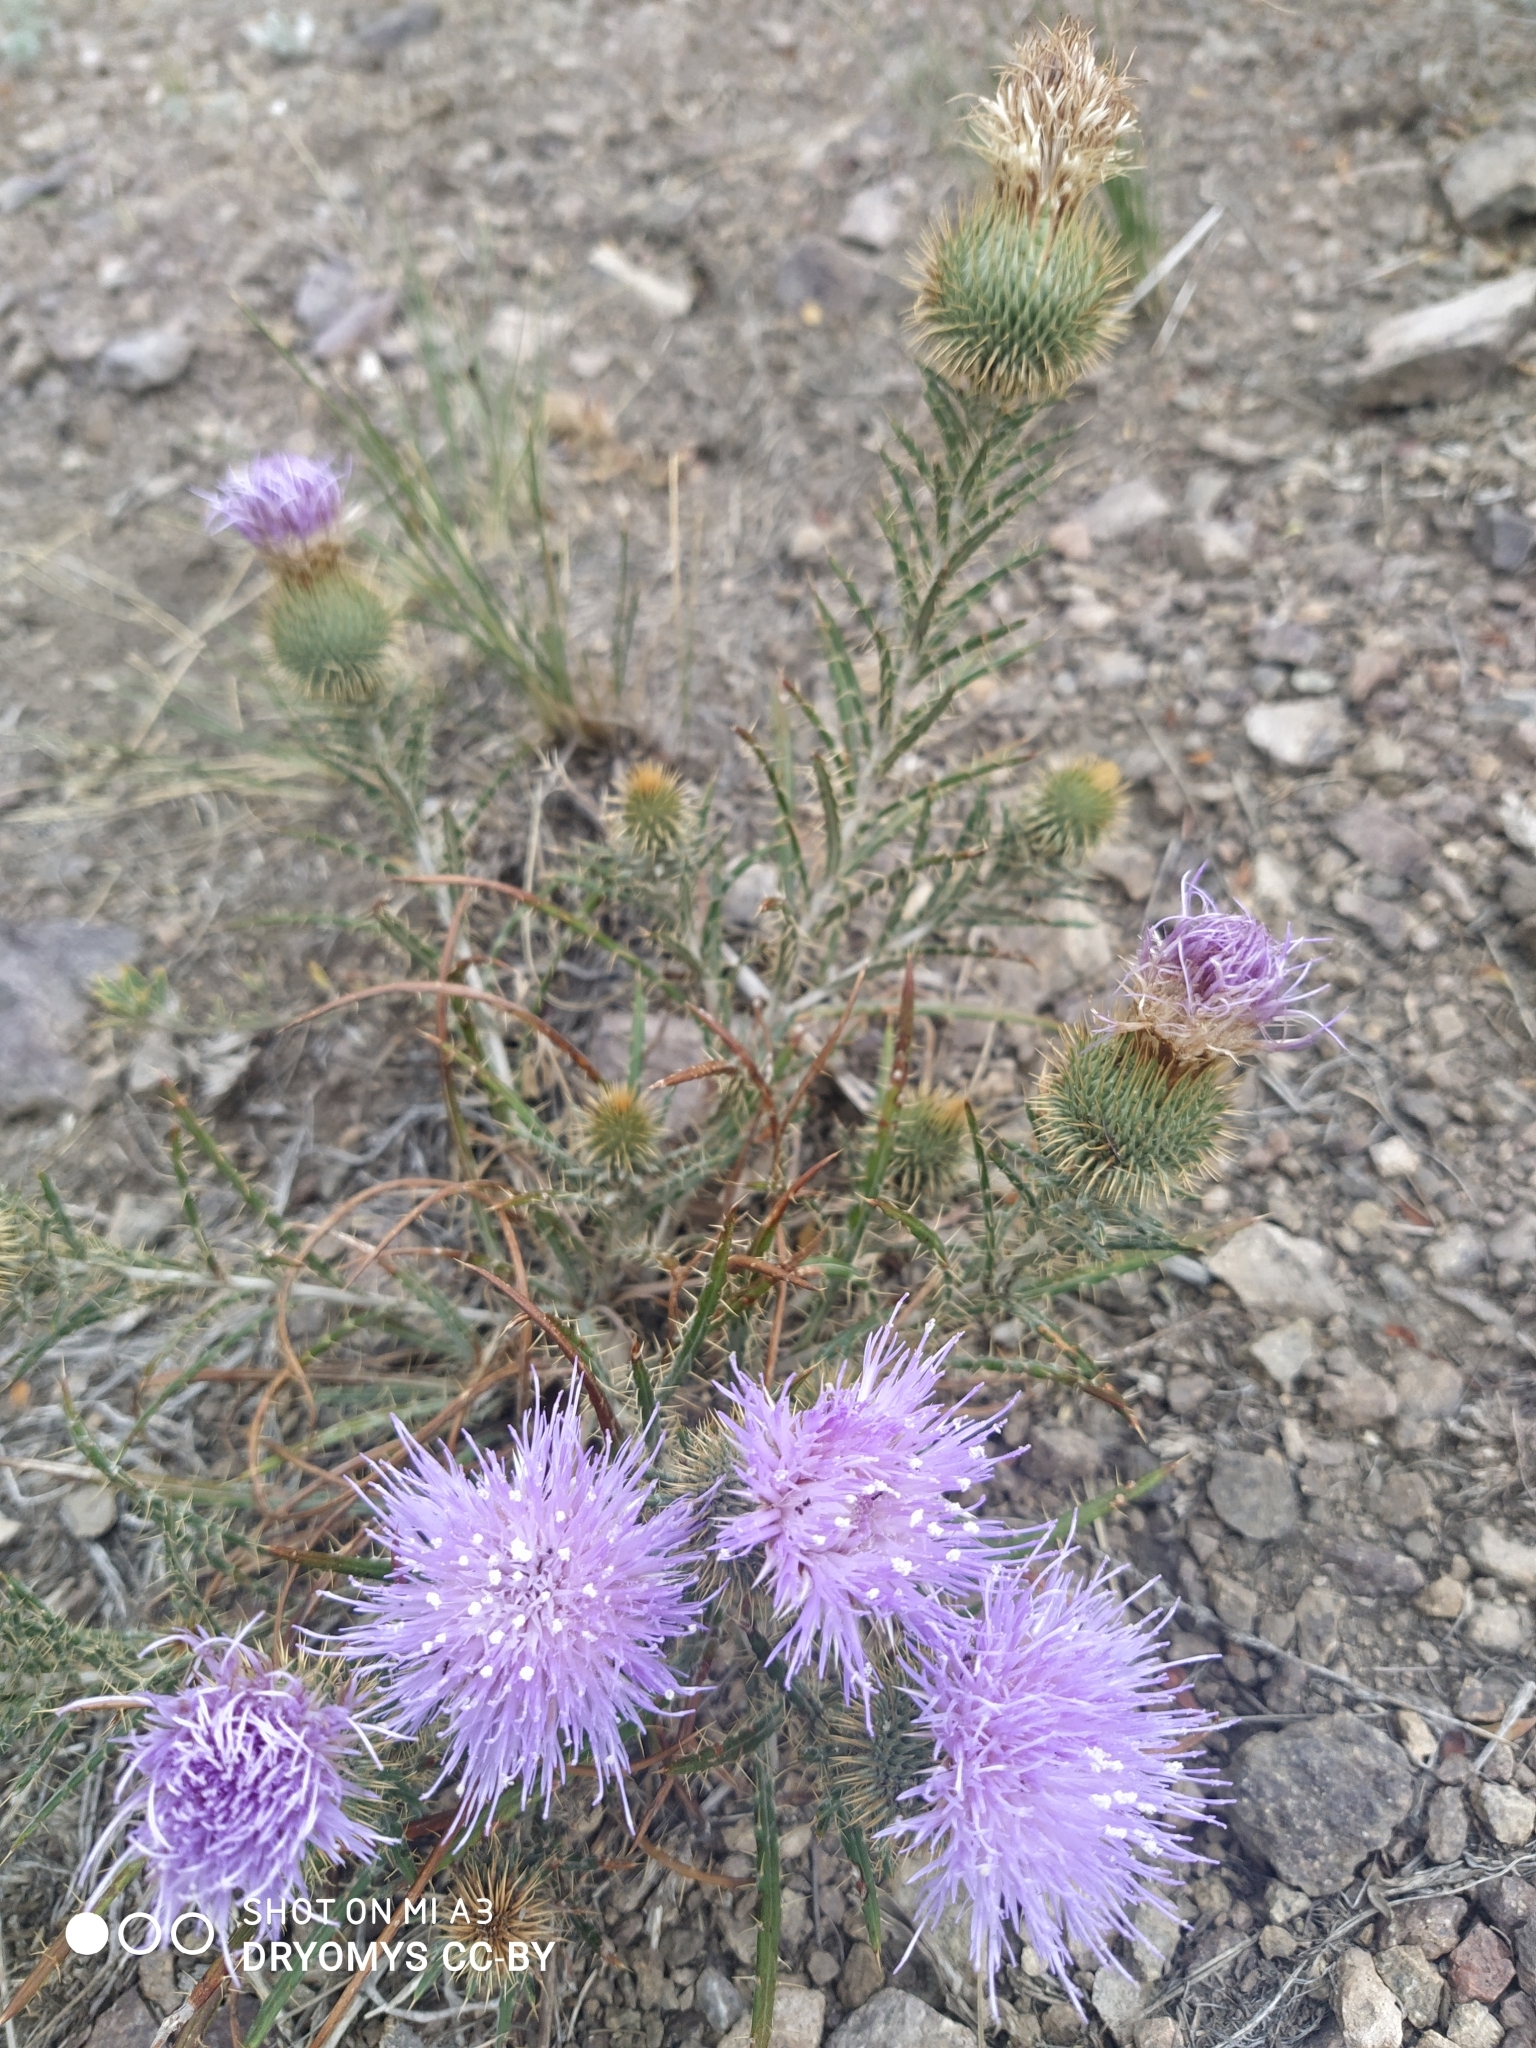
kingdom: Plantae
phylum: Tracheophyta
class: Magnoliopsida
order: Asterales
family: Asteraceae
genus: Ancathia
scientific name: Ancathia igniaria
